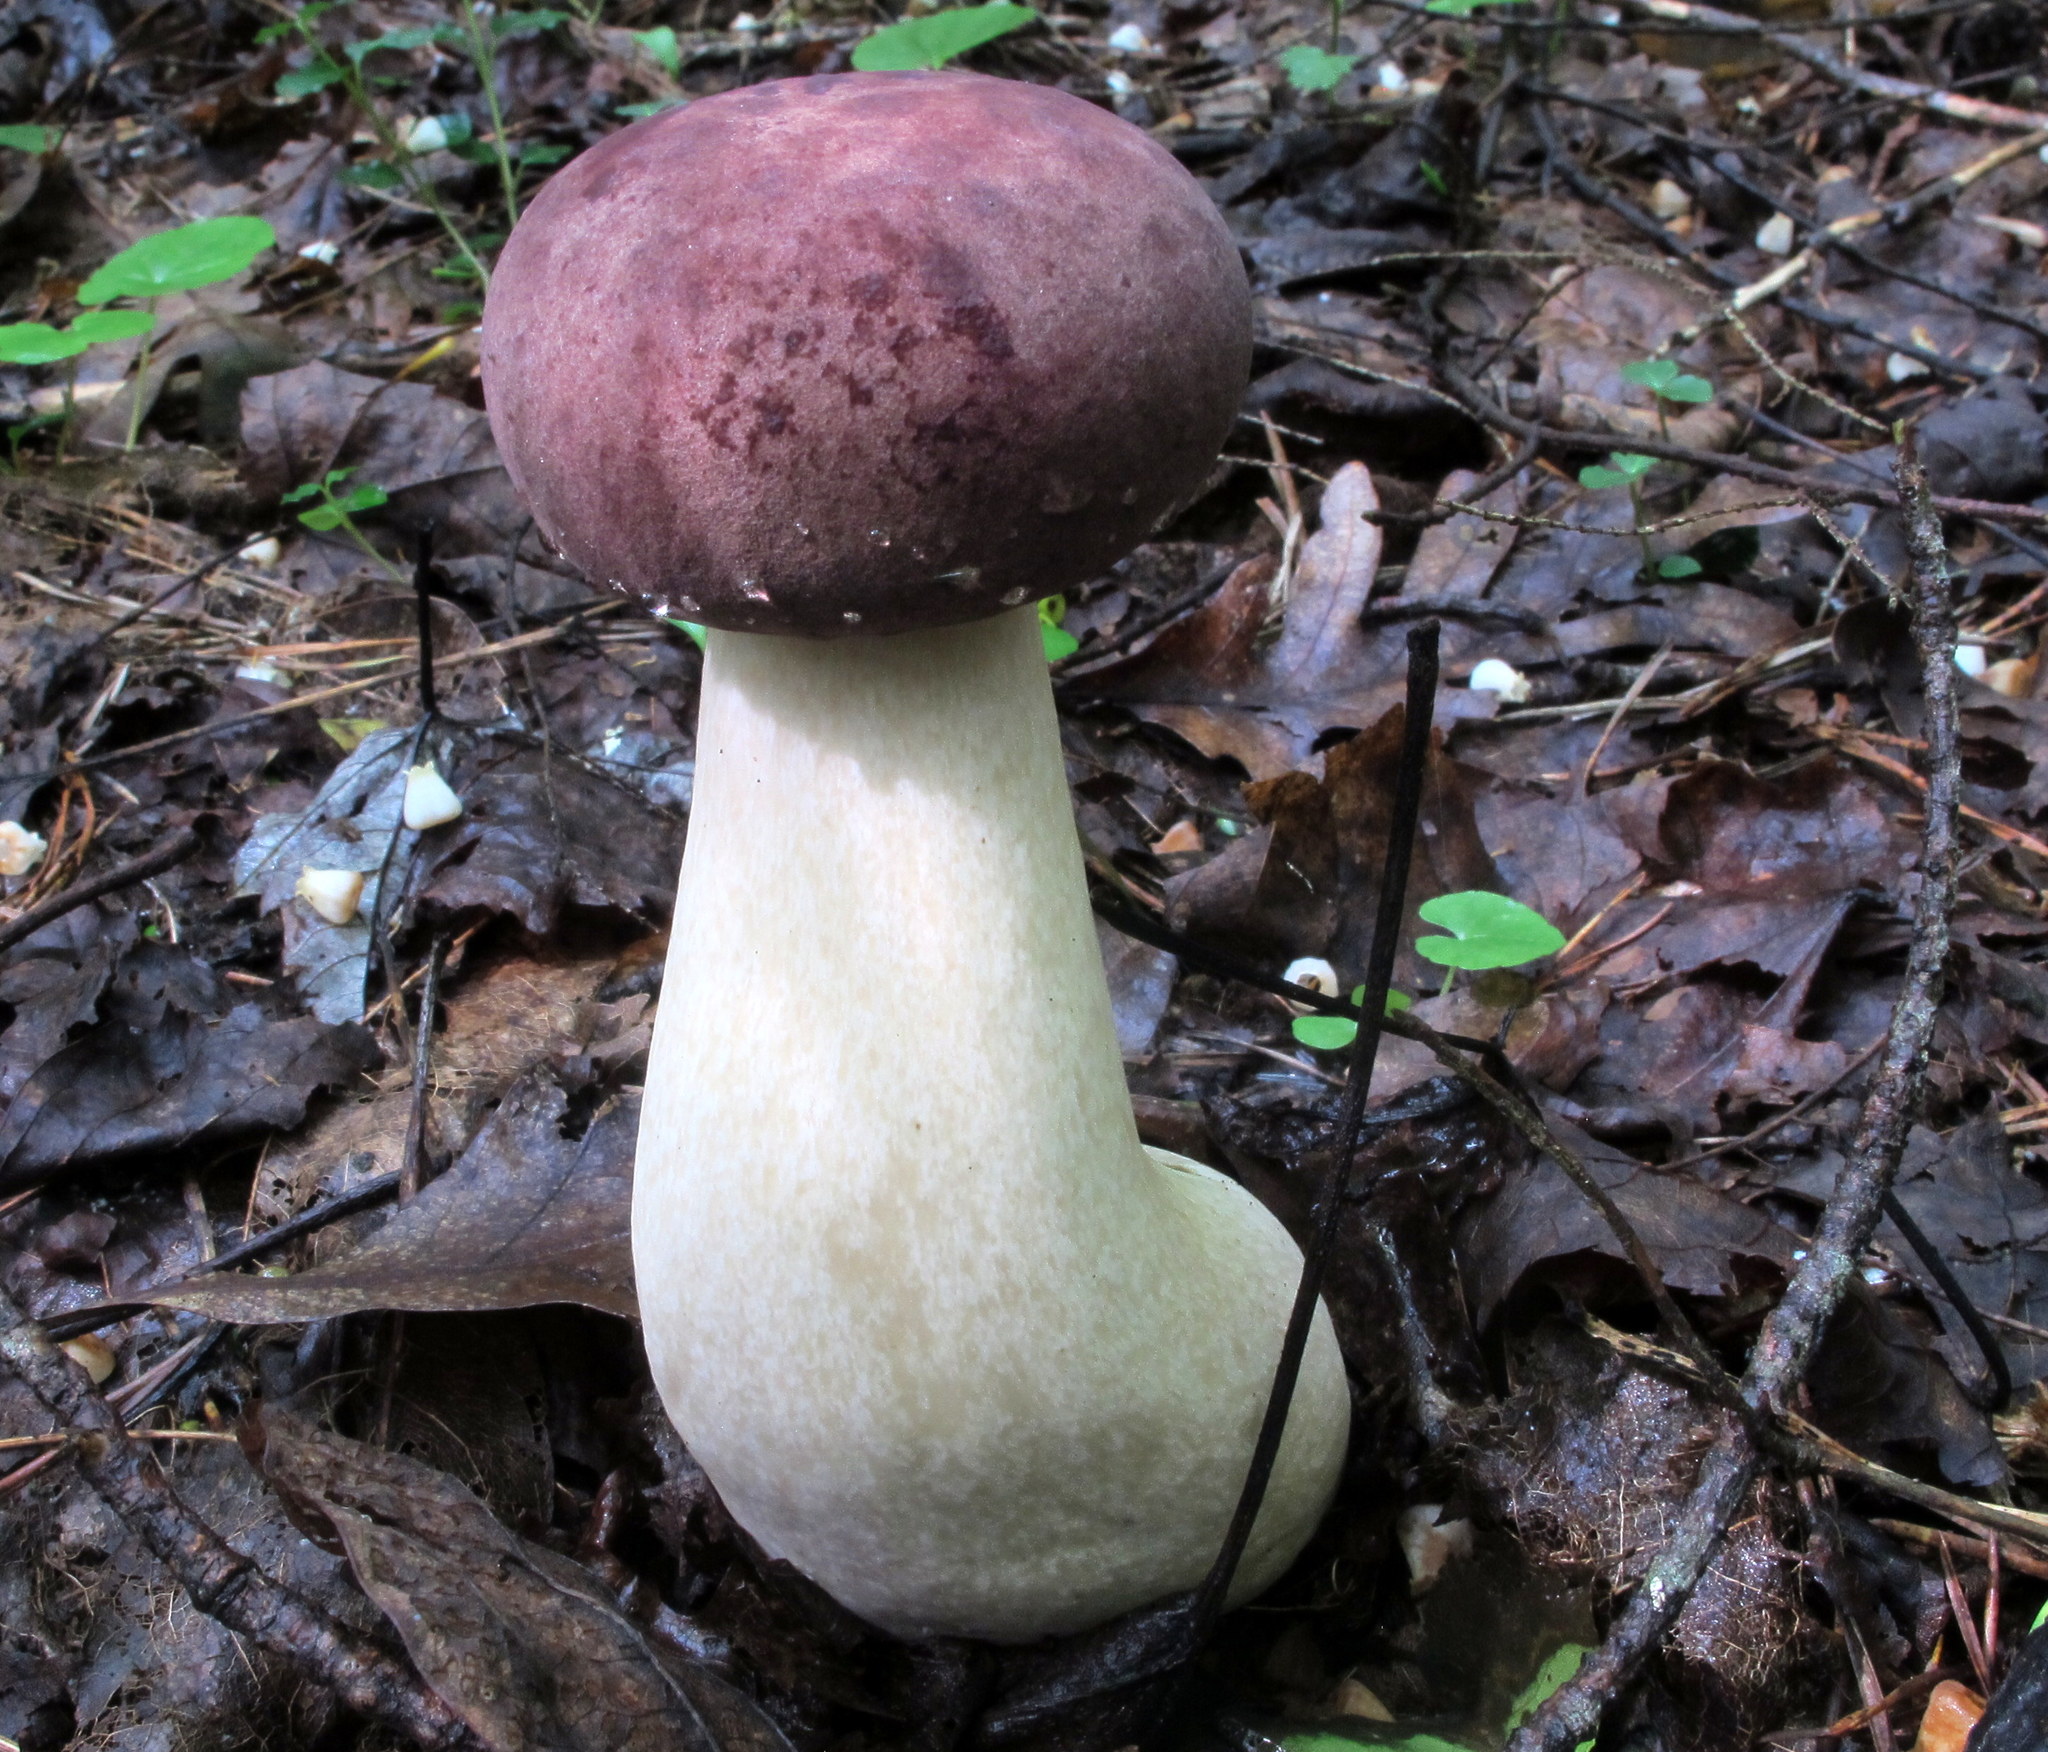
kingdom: Fungi
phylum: Basidiomycota
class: Agaricomycetes
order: Boletales
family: Boletaceae
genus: Tylopilus
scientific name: Tylopilus rubrobrunneus
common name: Reddish brown bitter bolete
